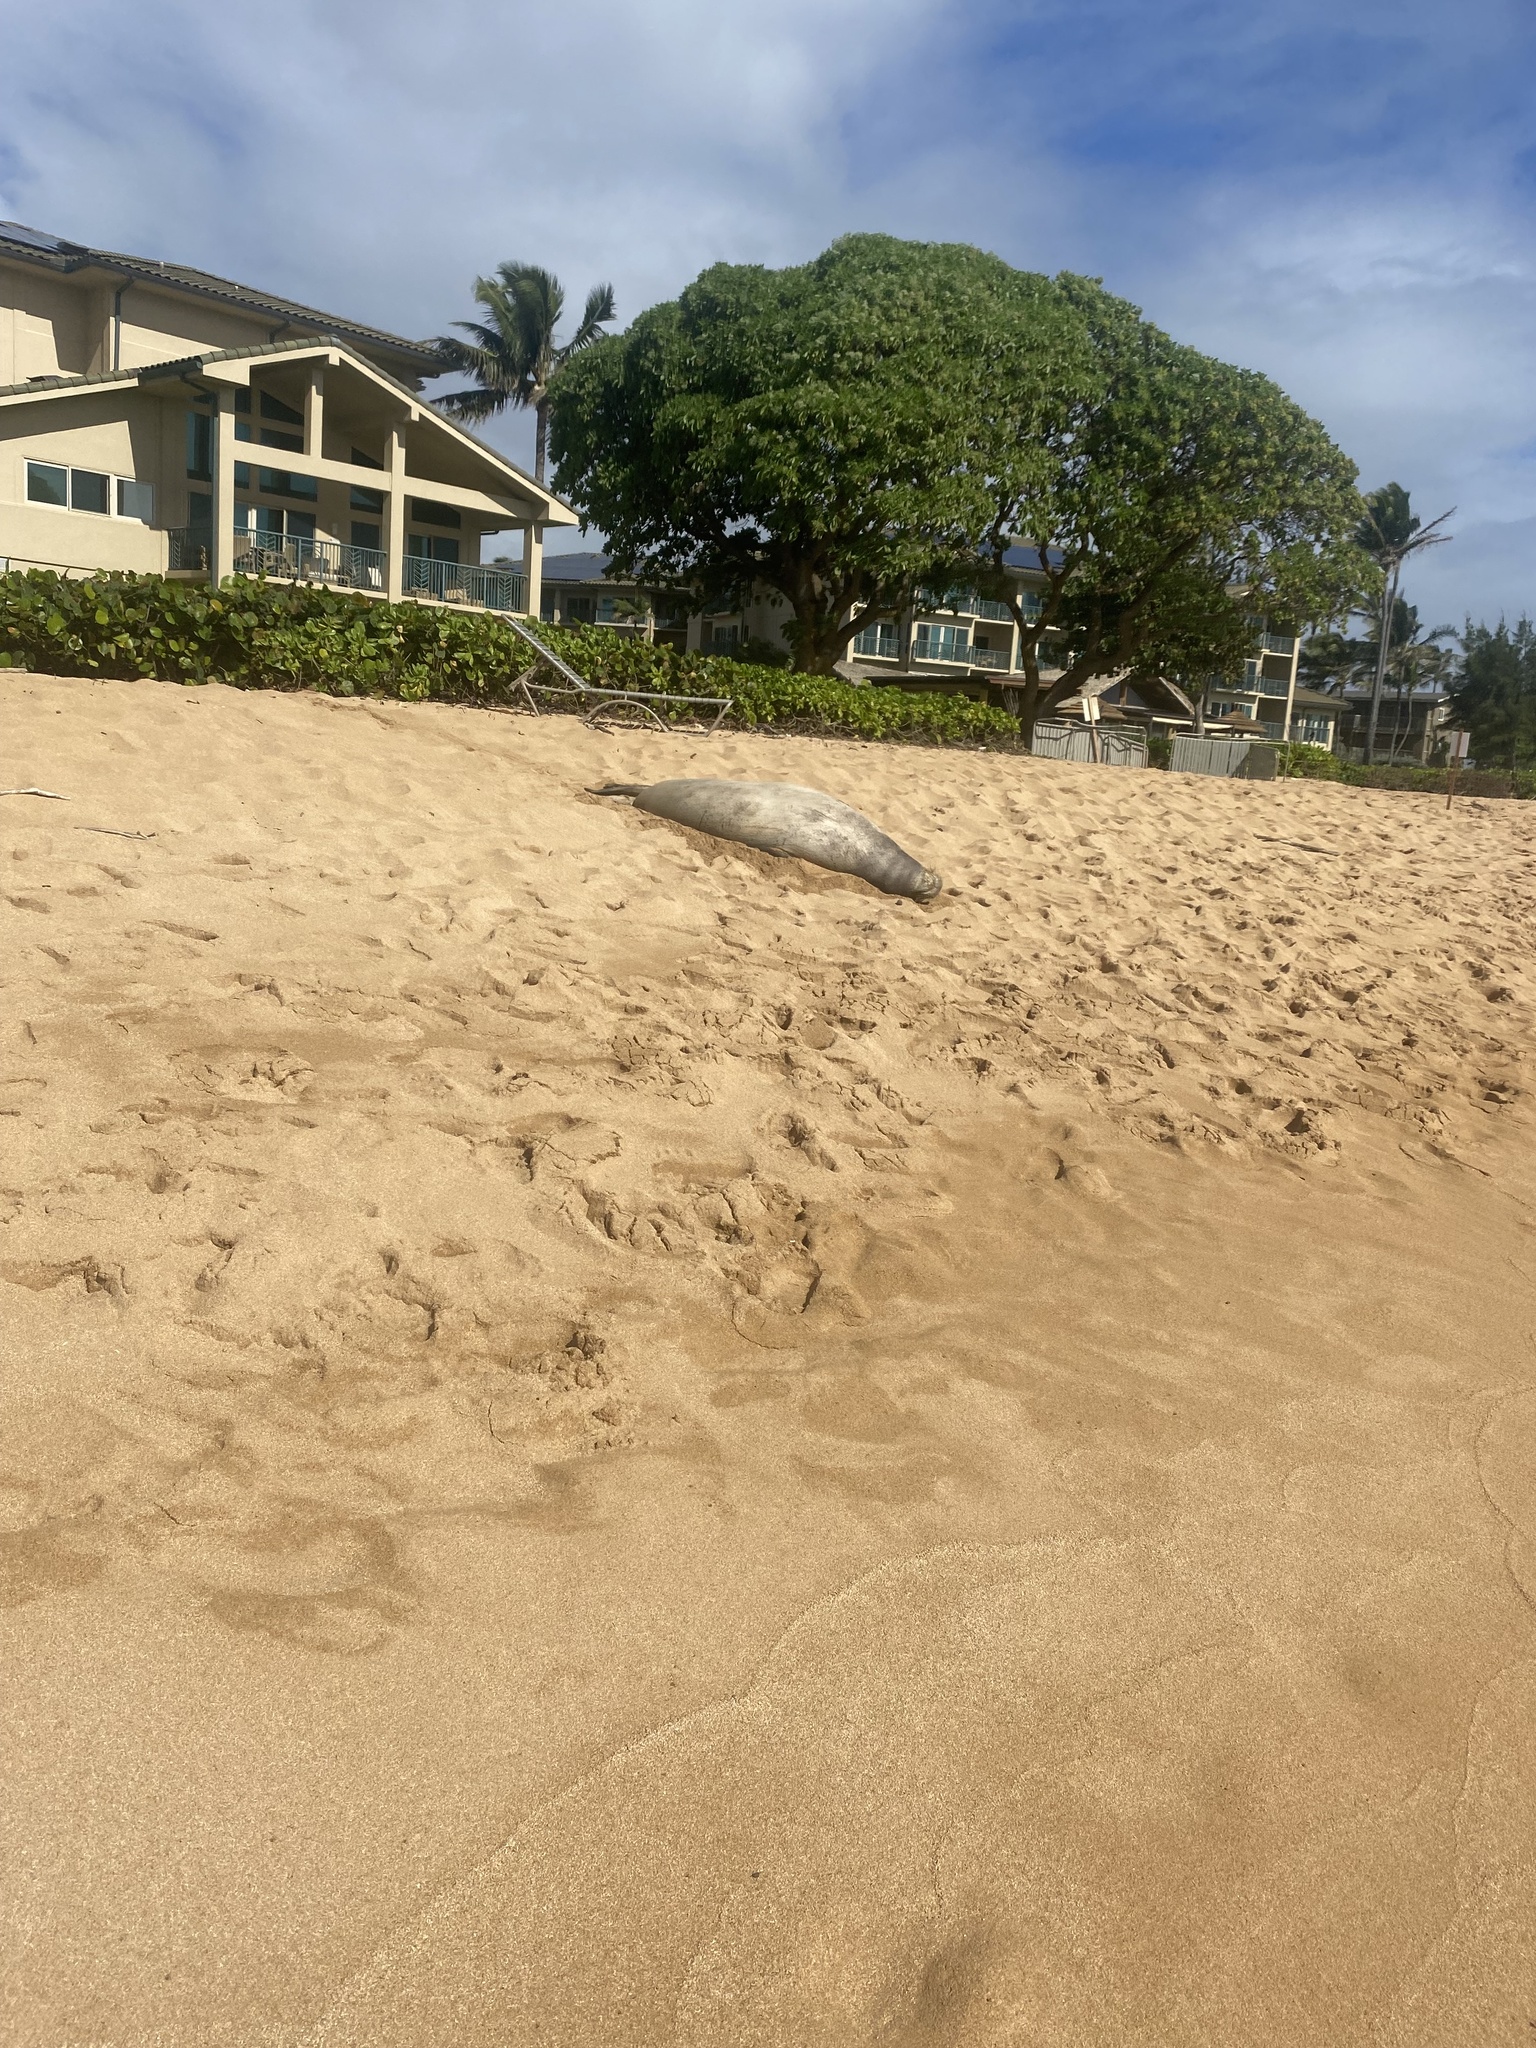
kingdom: Animalia
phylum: Chordata
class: Mammalia
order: Carnivora
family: Phocidae
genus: Neomonachus
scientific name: Neomonachus schauinslandi
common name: Hawaiian monk seal
